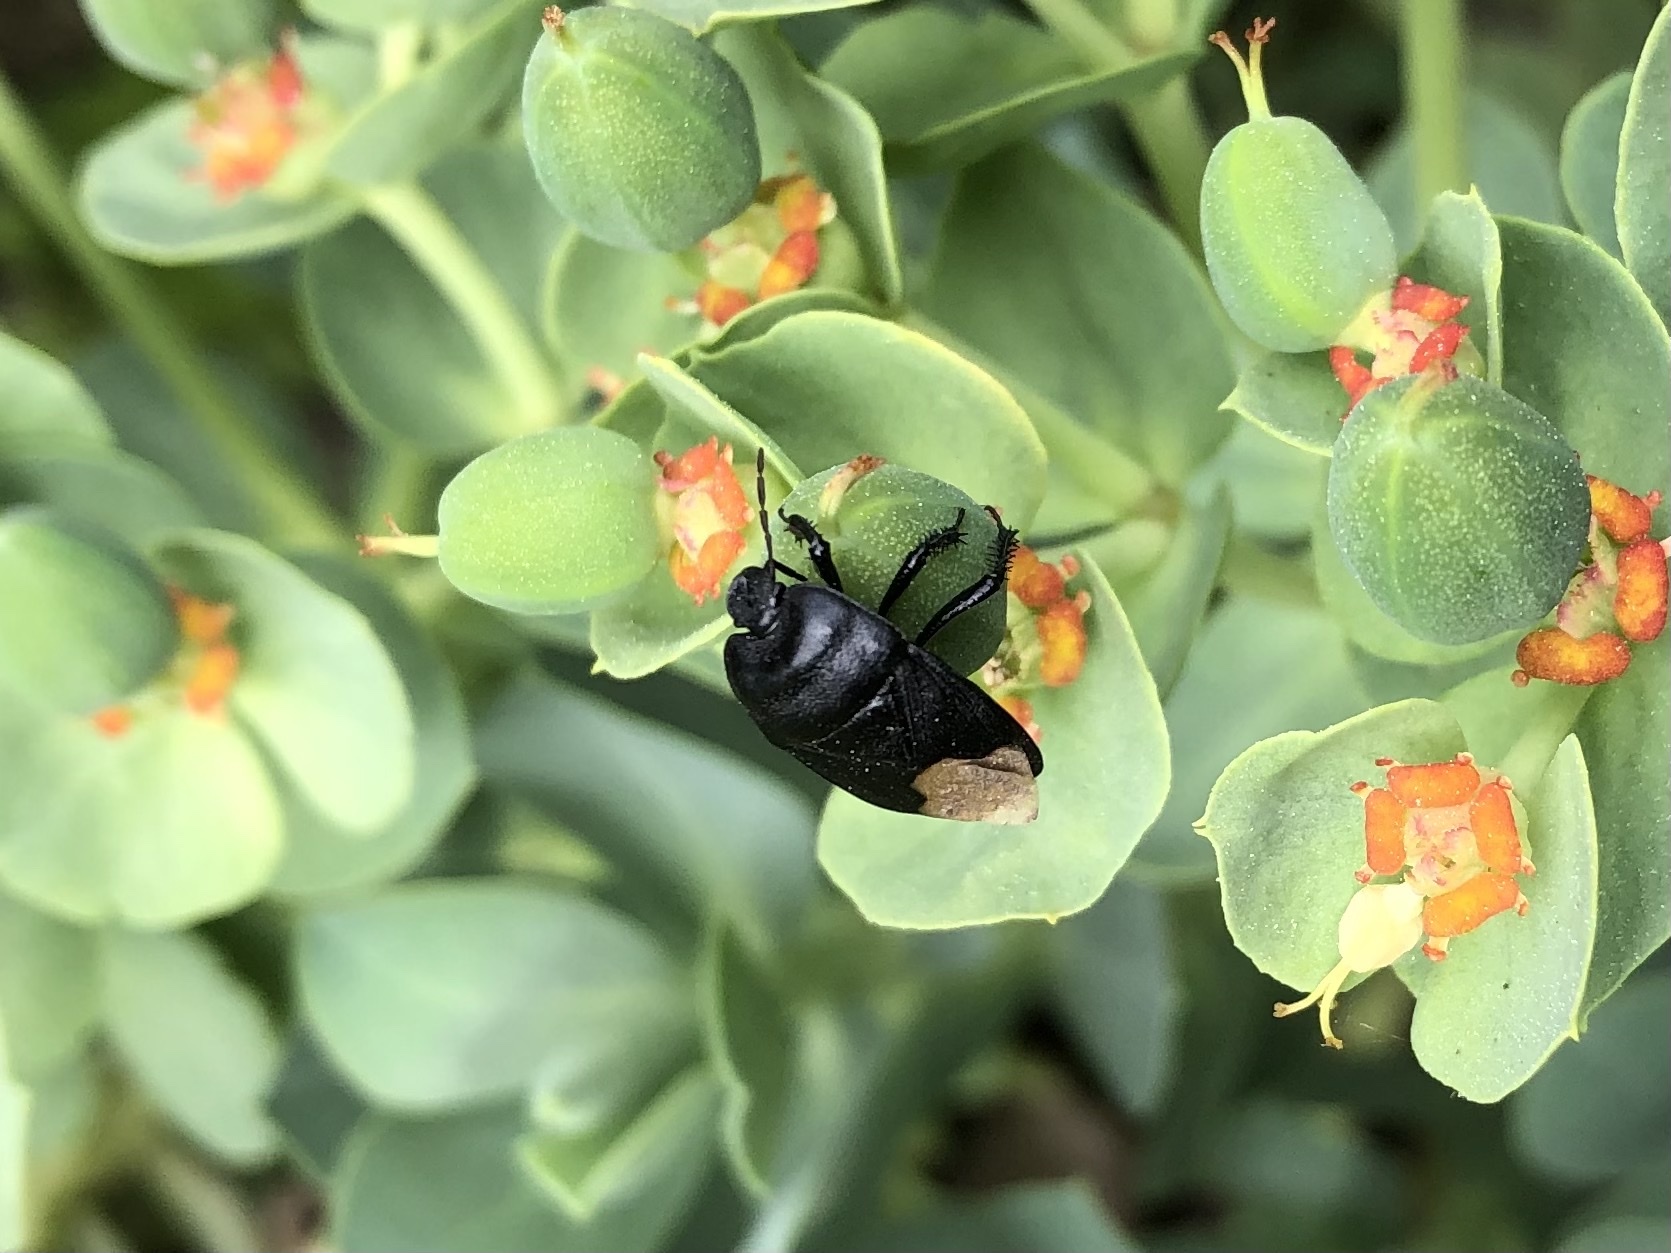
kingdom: Animalia
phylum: Arthropoda
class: Insecta
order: Hemiptera
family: Cydnidae
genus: Cydnus
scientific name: Cydnus aterrimus
